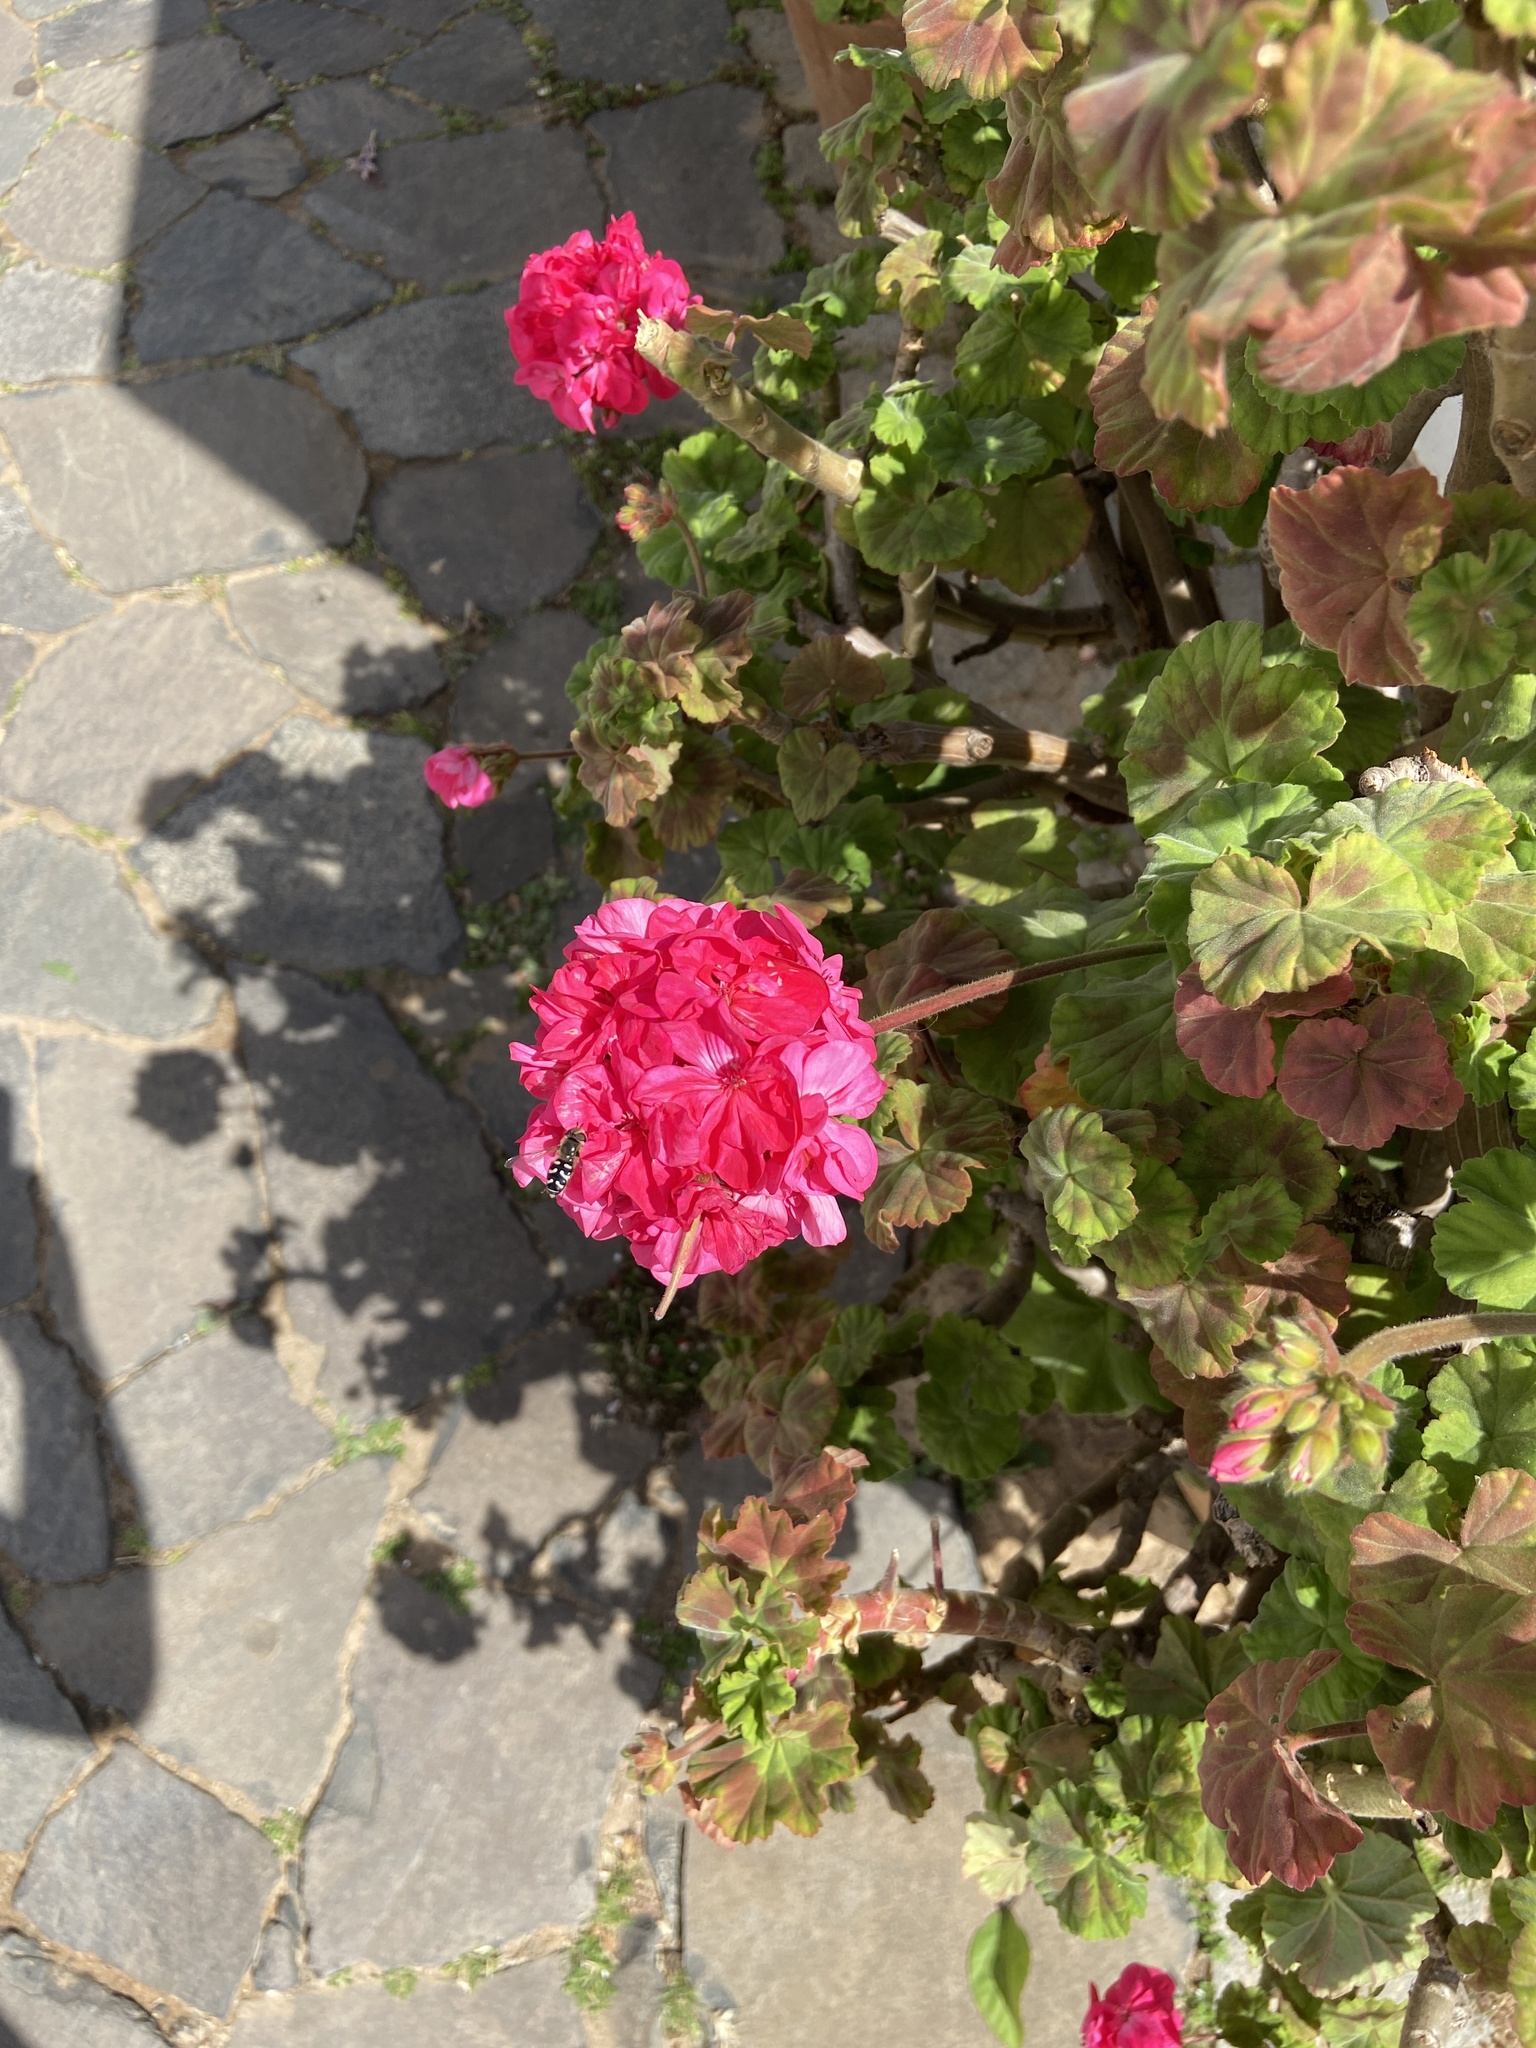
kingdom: Animalia
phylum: Arthropoda
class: Insecta
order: Diptera
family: Syrphidae
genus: Scaeva
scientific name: Scaeva pyrastri
